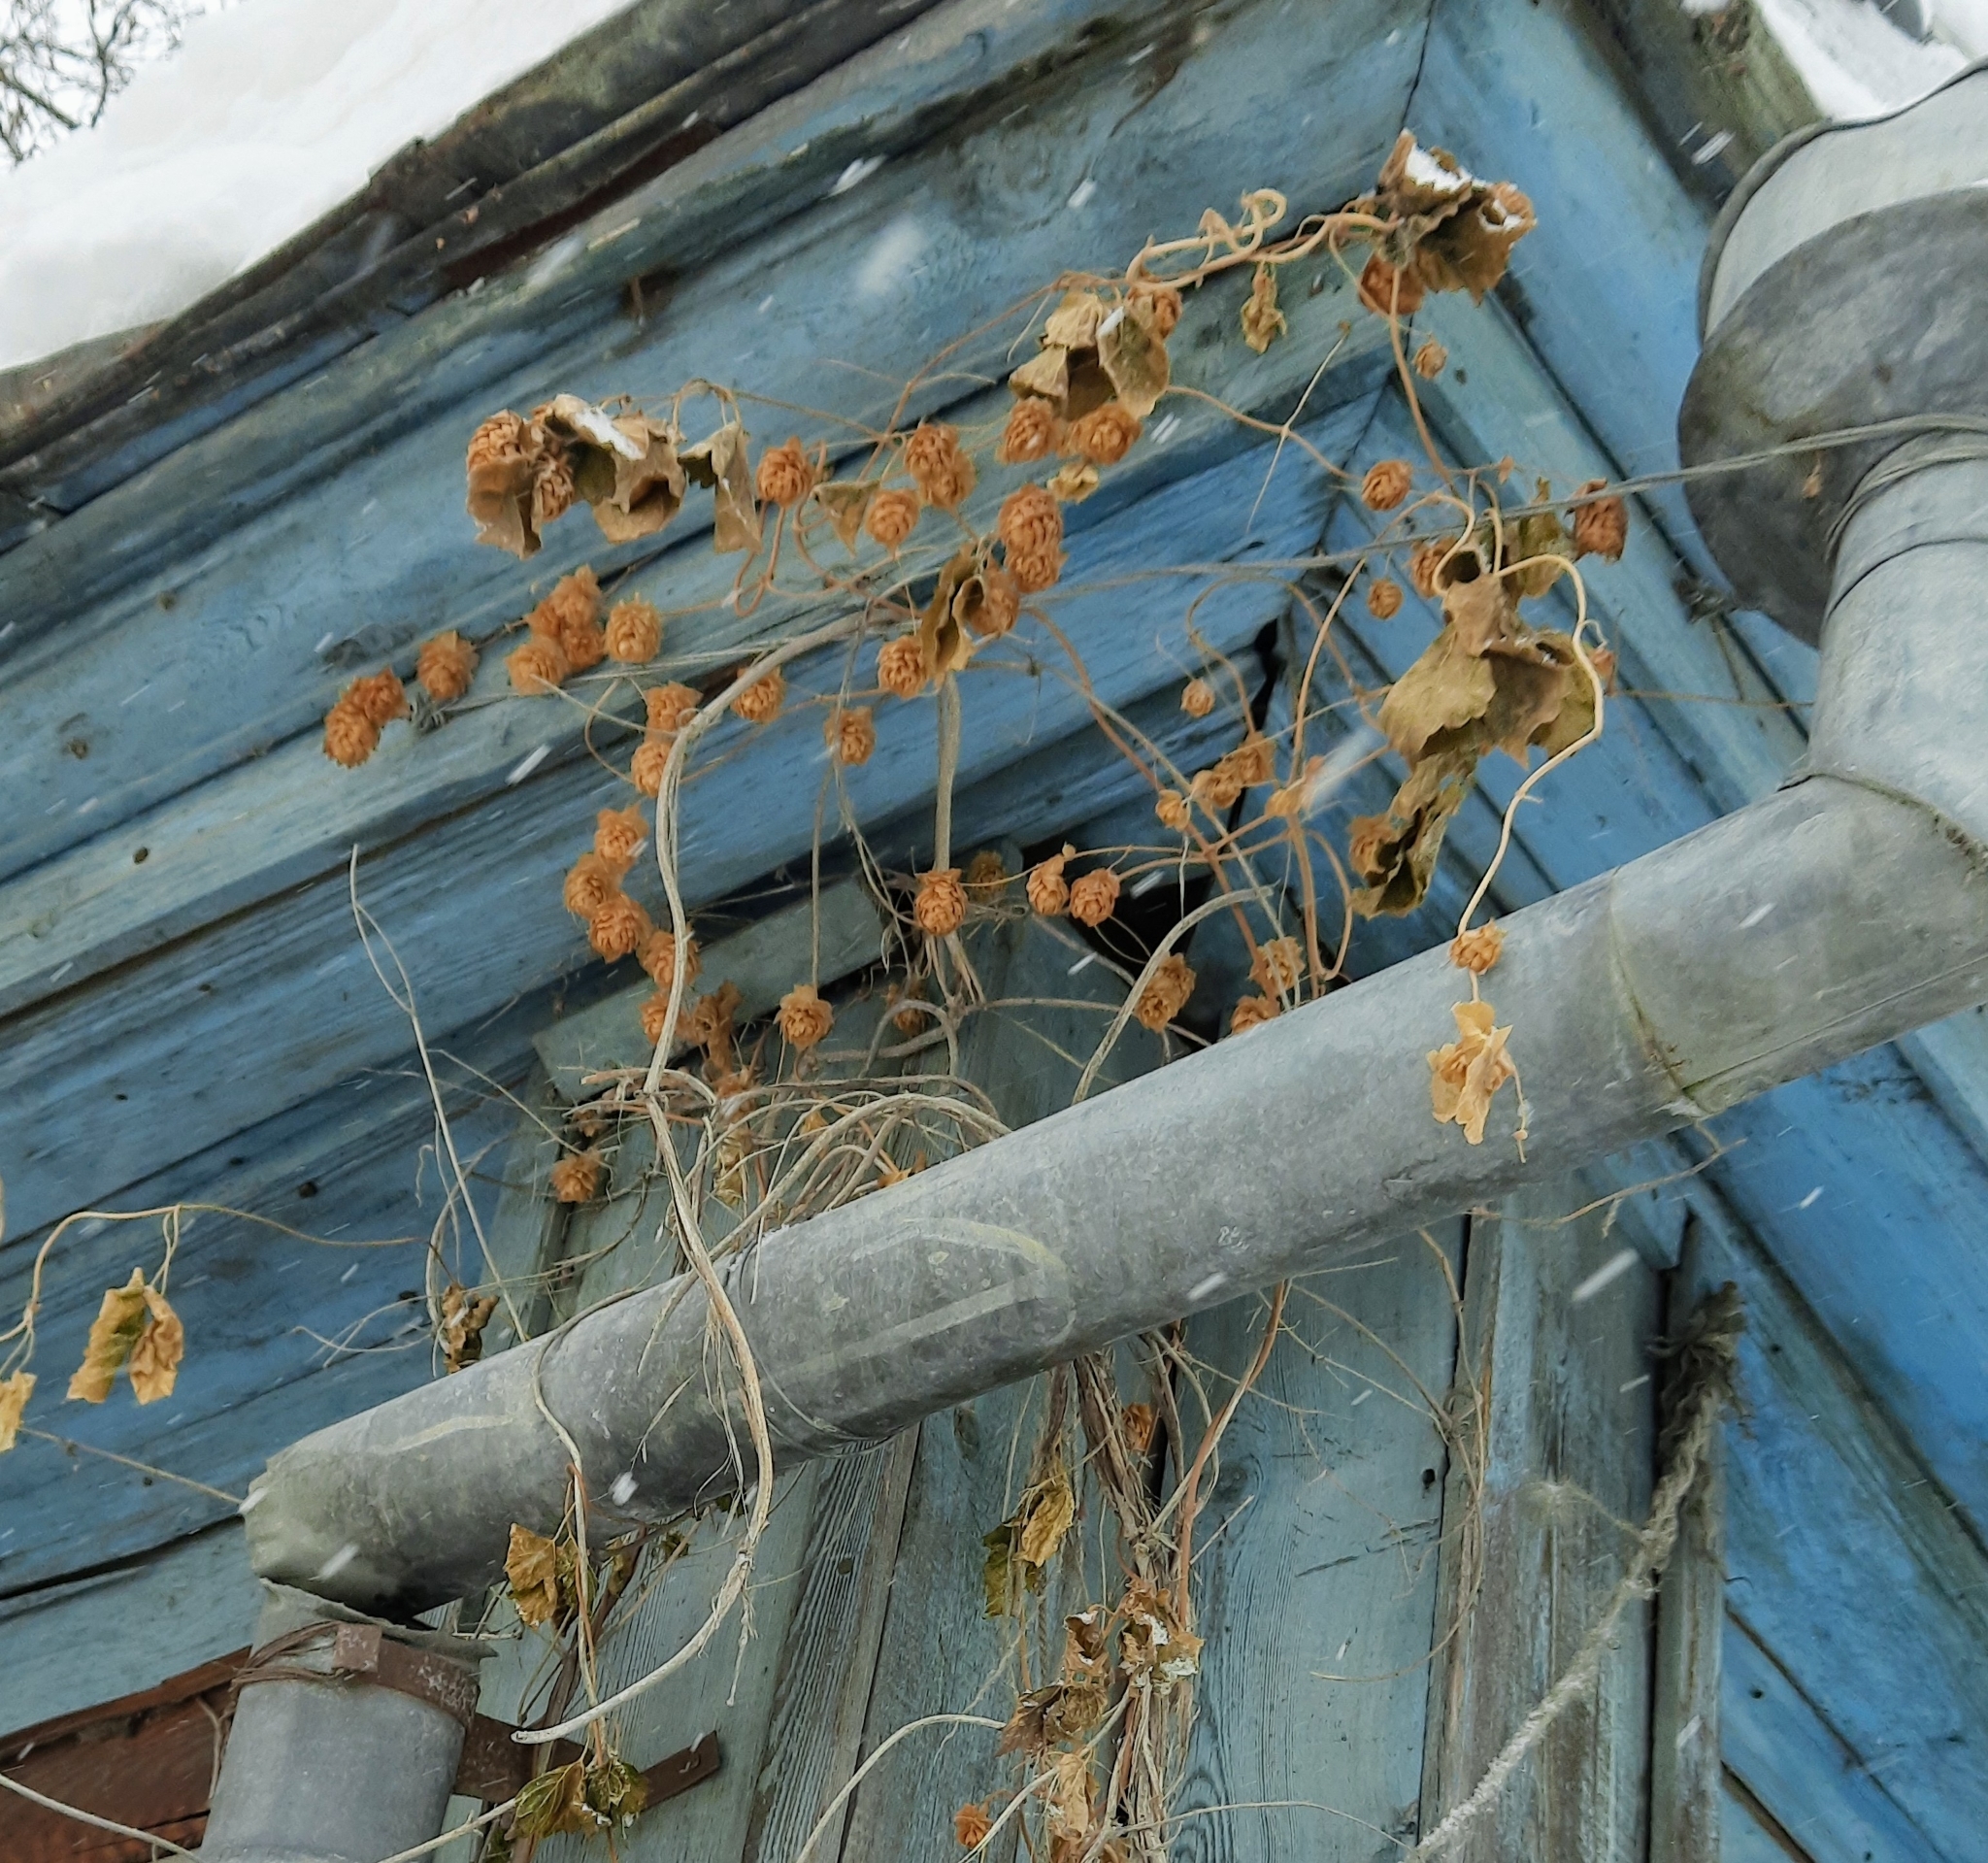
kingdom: Plantae
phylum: Tracheophyta
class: Magnoliopsida
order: Rosales
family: Cannabaceae
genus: Humulus
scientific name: Humulus lupulus
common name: Hop
